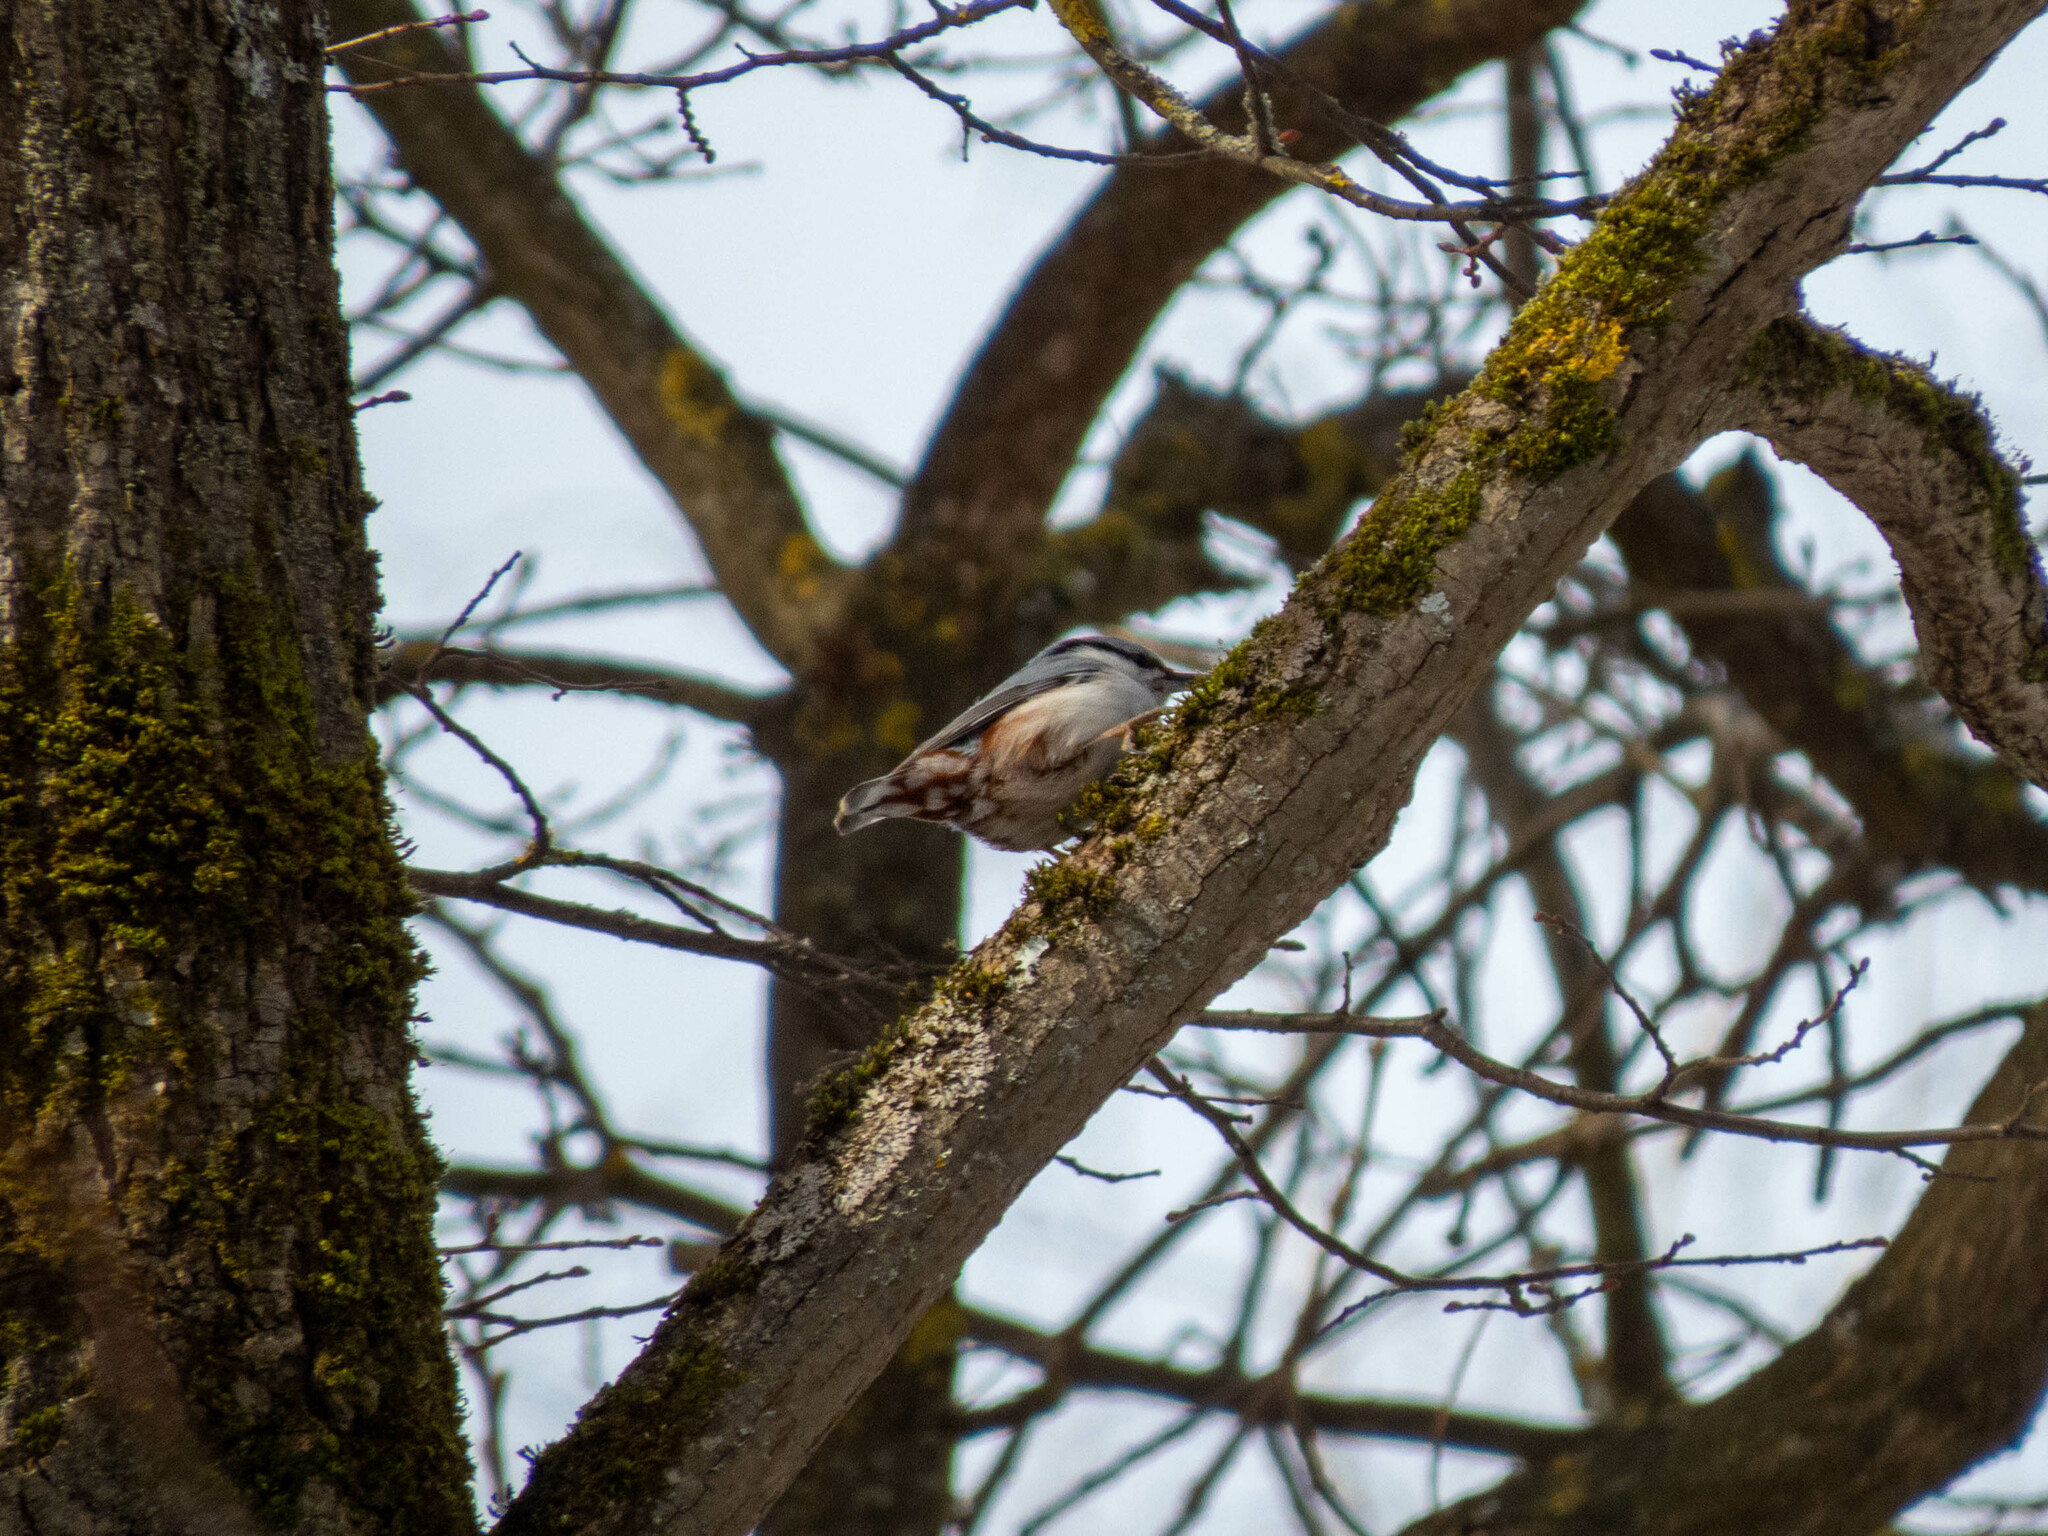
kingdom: Animalia
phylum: Chordata
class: Aves
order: Passeriformes
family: Sittidae
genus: Sitta
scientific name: Sitta europaea
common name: Eurasian nuthatch
